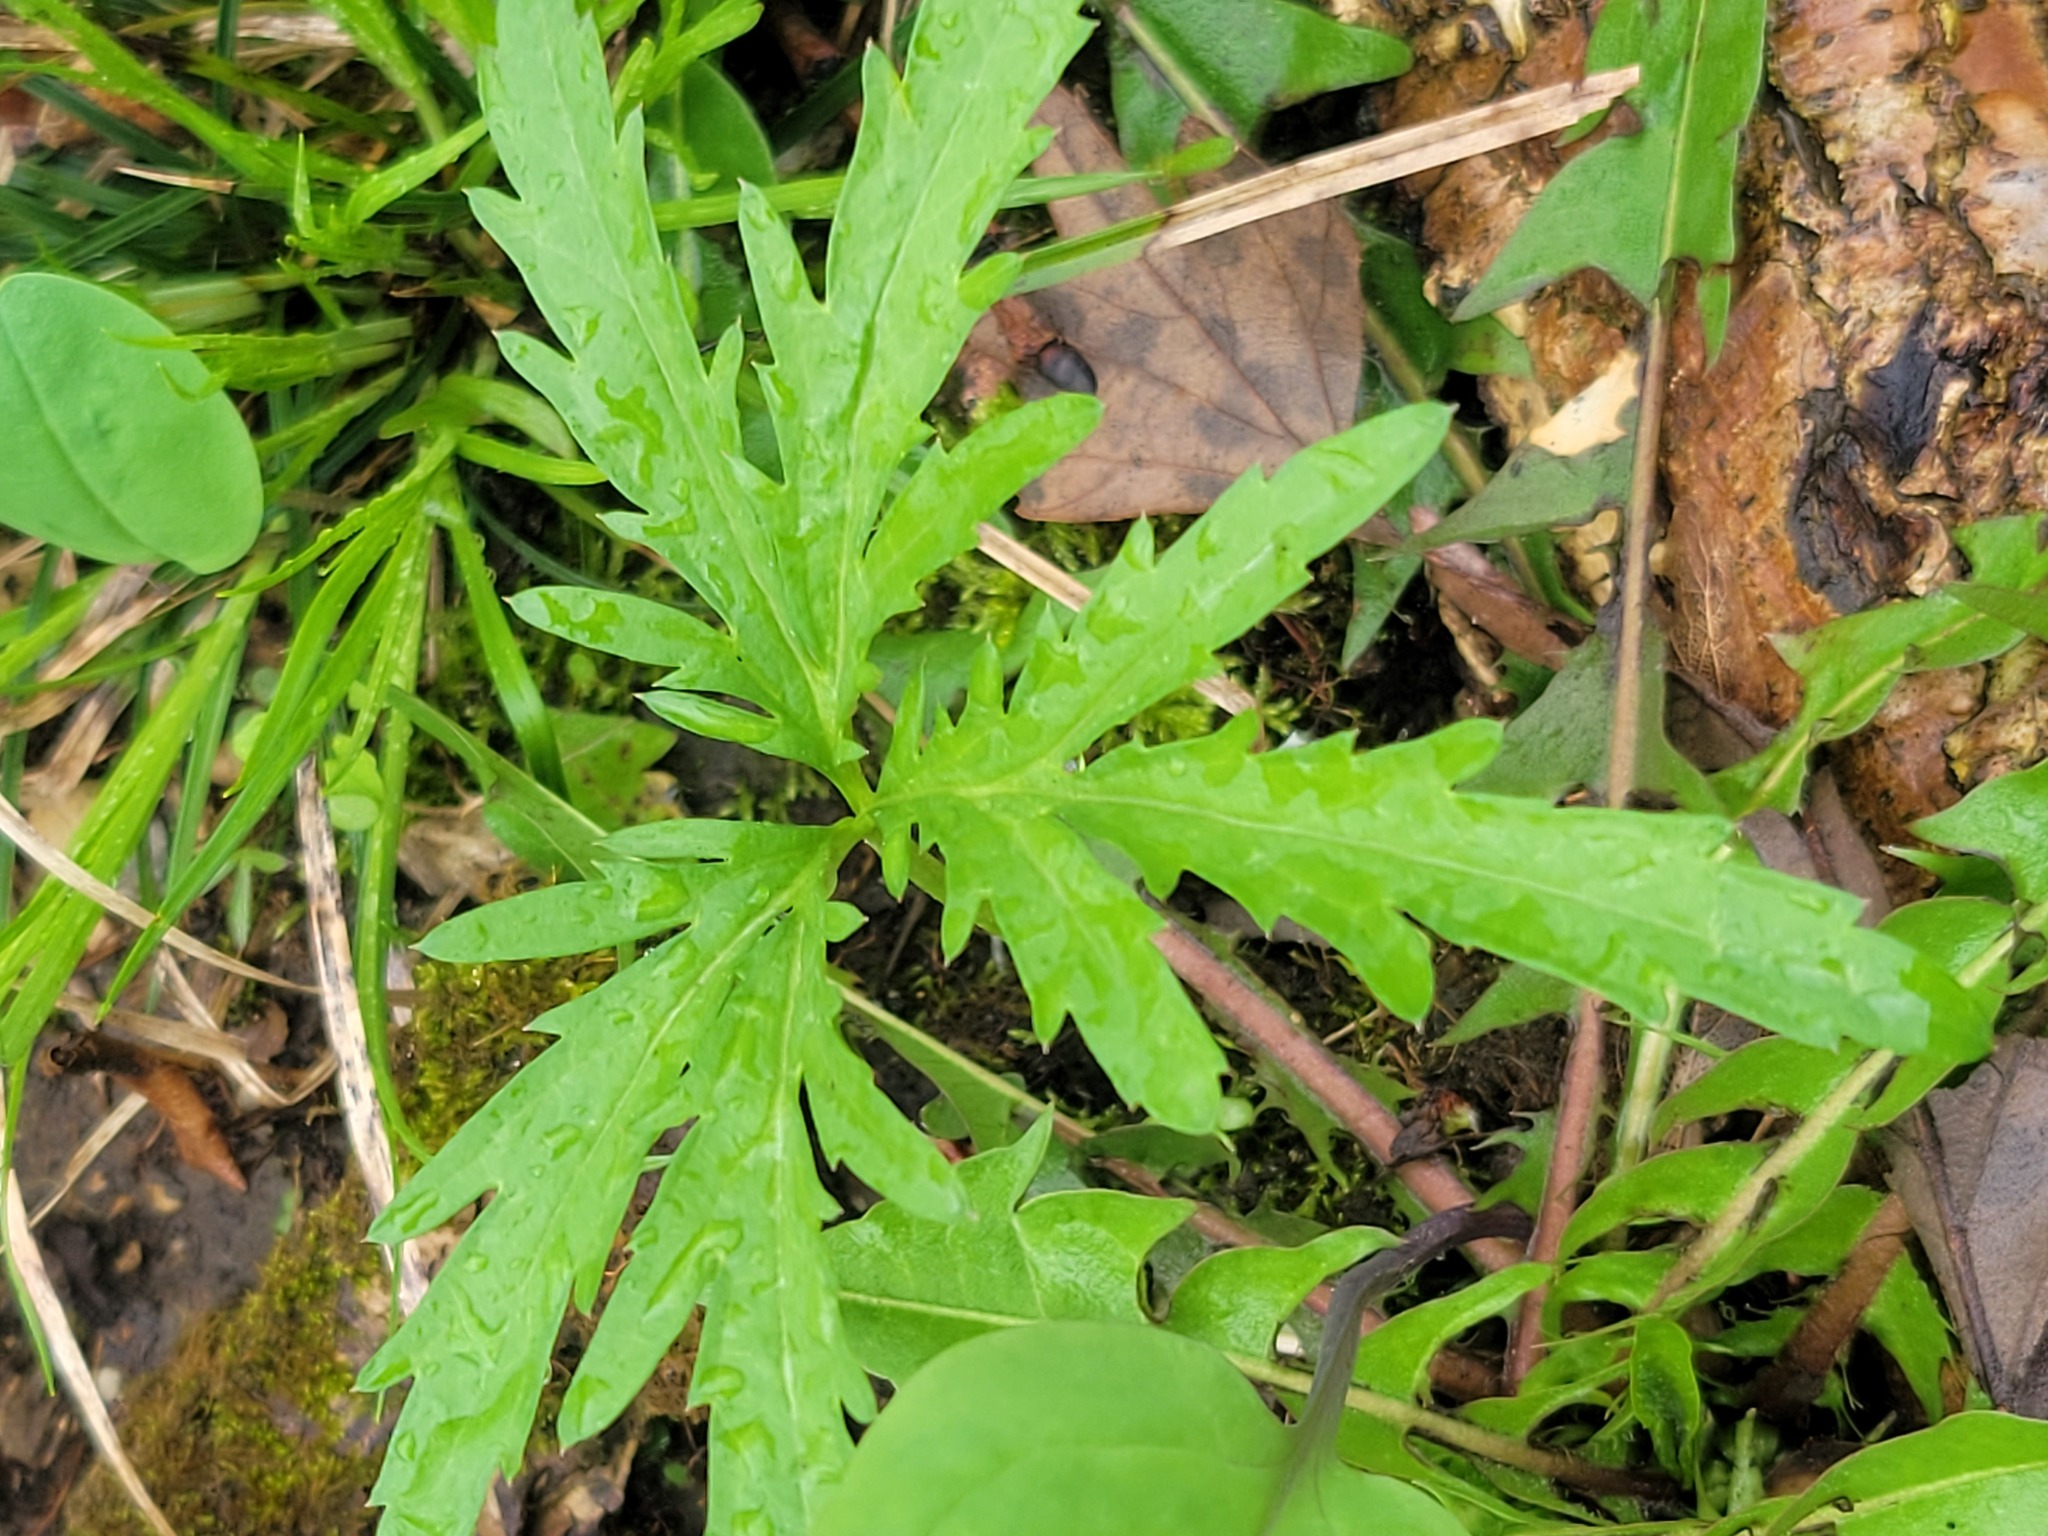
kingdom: Plantae
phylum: Tracheophyta
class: Magnoliopsida
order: Brassicales
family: Brassicaceae
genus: Cardamine
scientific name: Cardamine concatenata
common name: Cut-leaf toothcup
